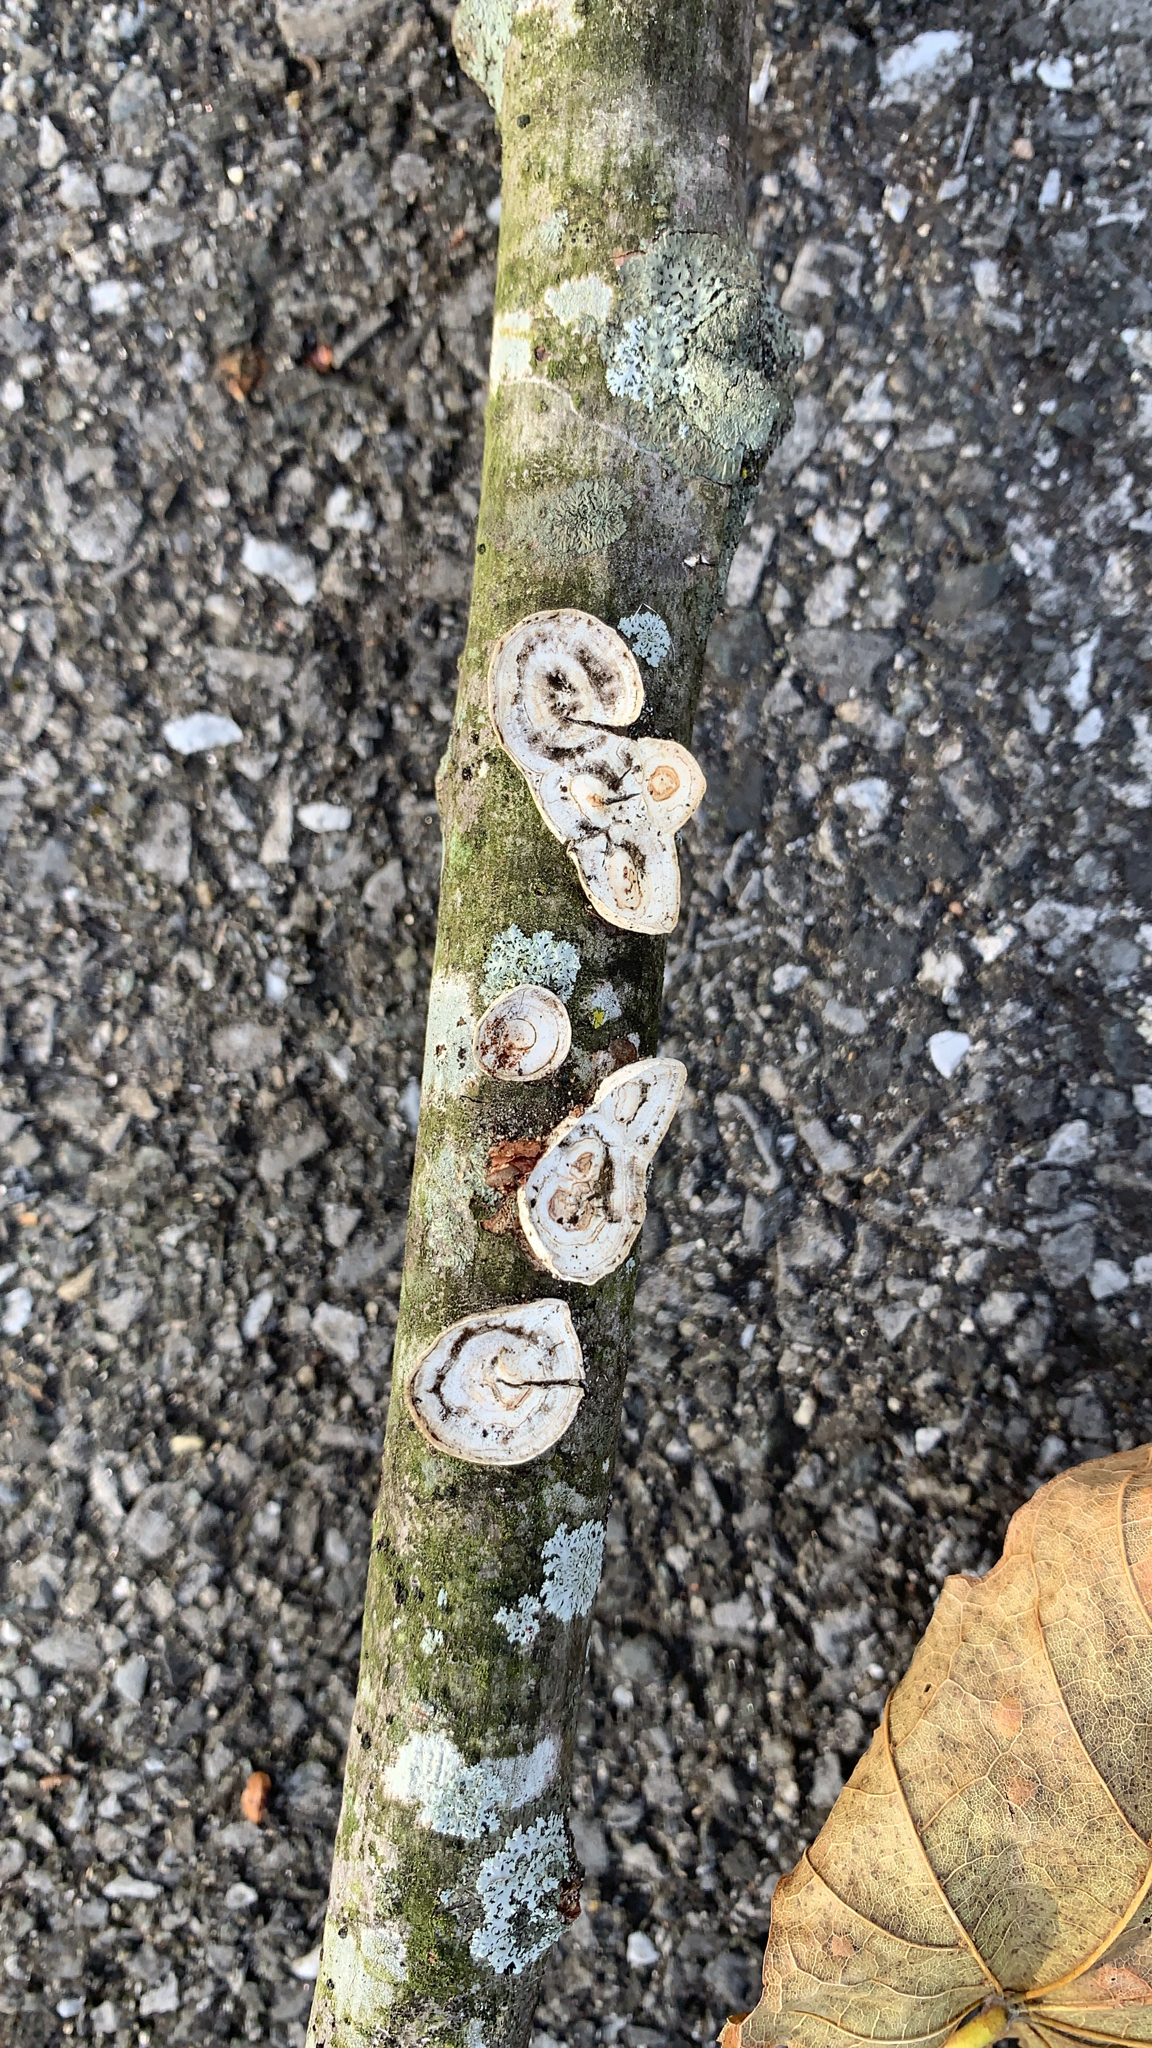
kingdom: Fungi
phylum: Basidiomycota
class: Agaricomycetes
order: Polyporales
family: Polyporaceae
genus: Poronidulus
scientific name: Poronidulus conchifer
